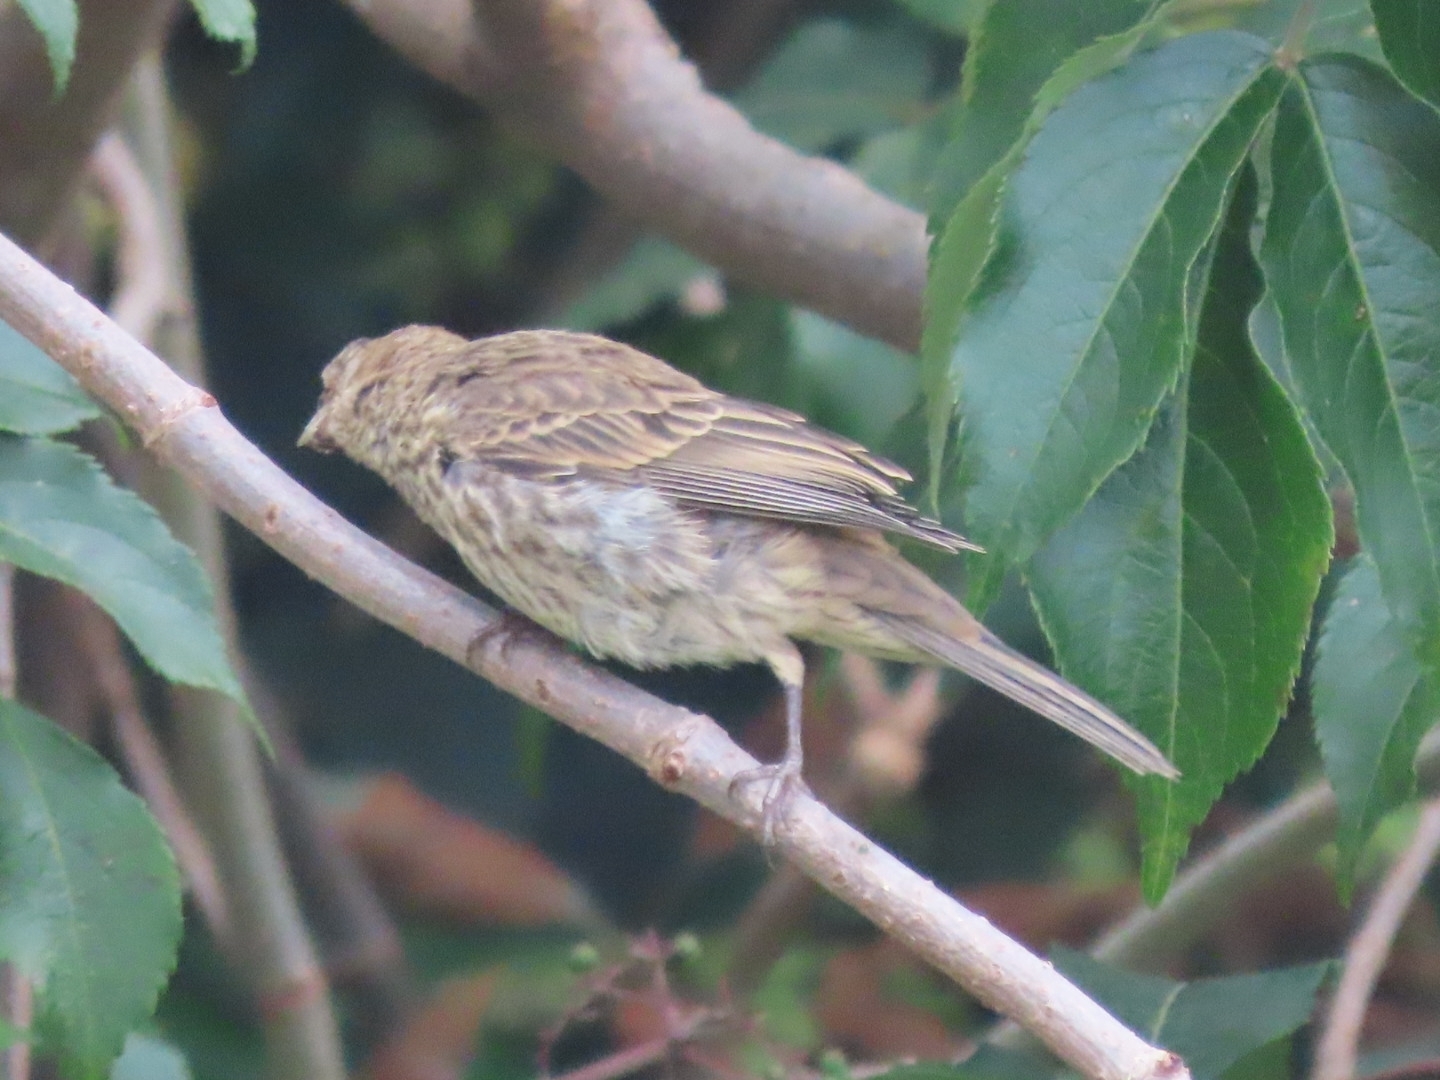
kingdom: Animalia
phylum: Chordata
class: Aves
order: Passeriformes
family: Fringillidae
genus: Haemorhous
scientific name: Haemorhous mexicanus
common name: House finch
